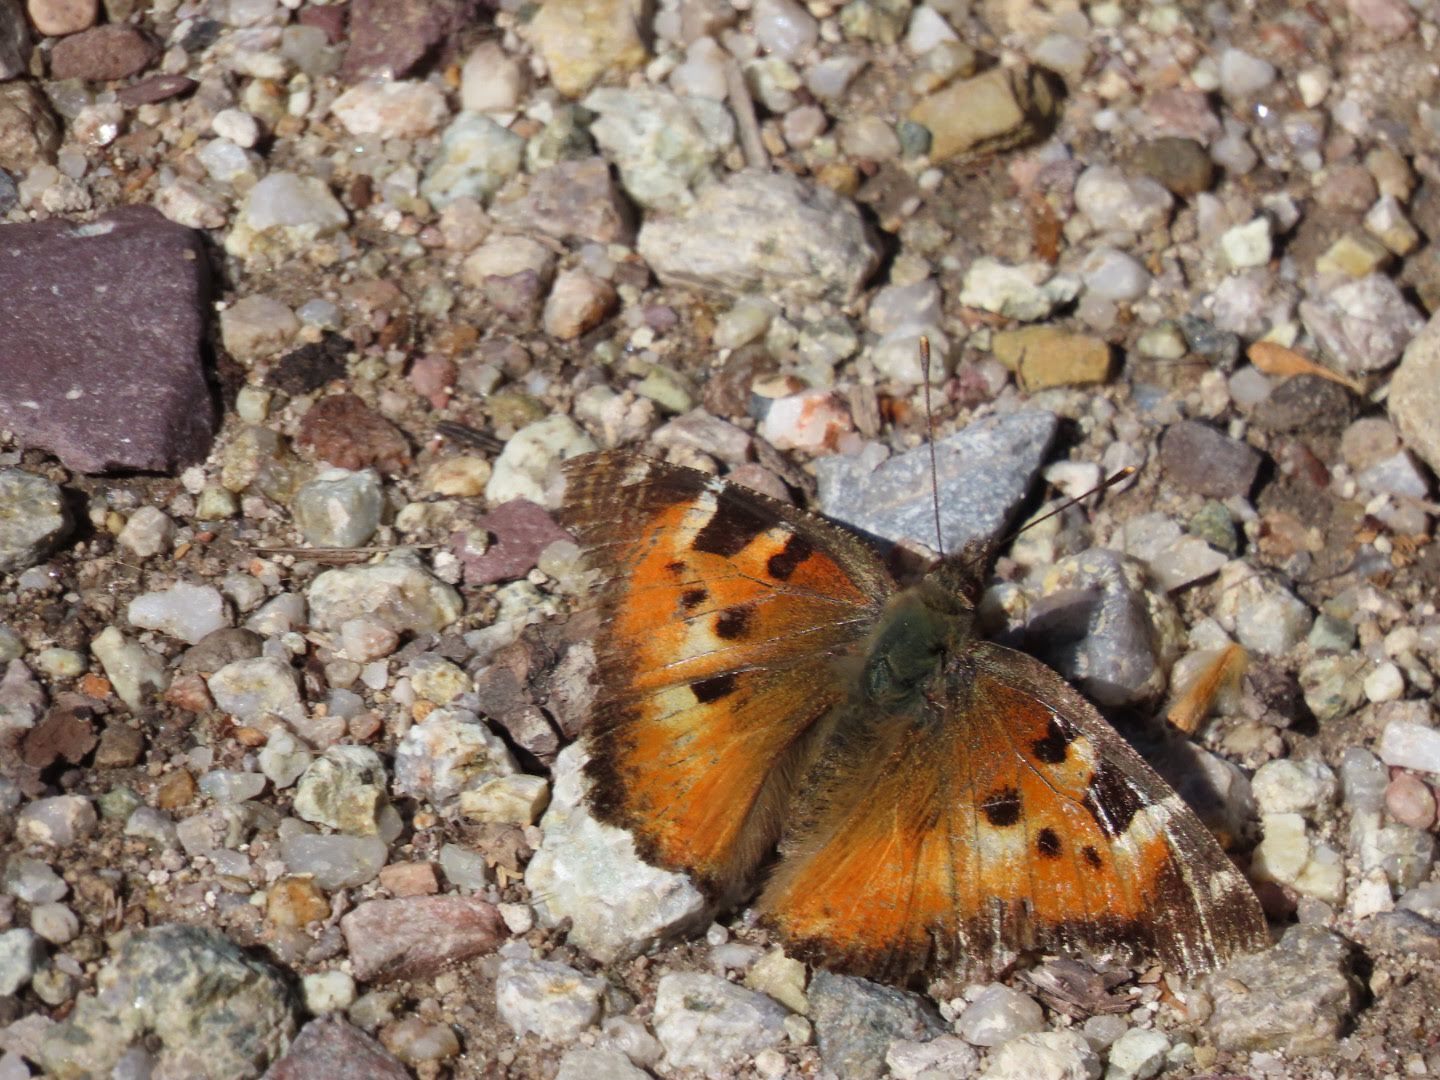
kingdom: Animalia
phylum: Arthropoda
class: Insecta
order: Lepidoptera
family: Nymphalidae
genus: Nymphalis
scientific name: Nymphalis californica
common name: California tortoiseshell
